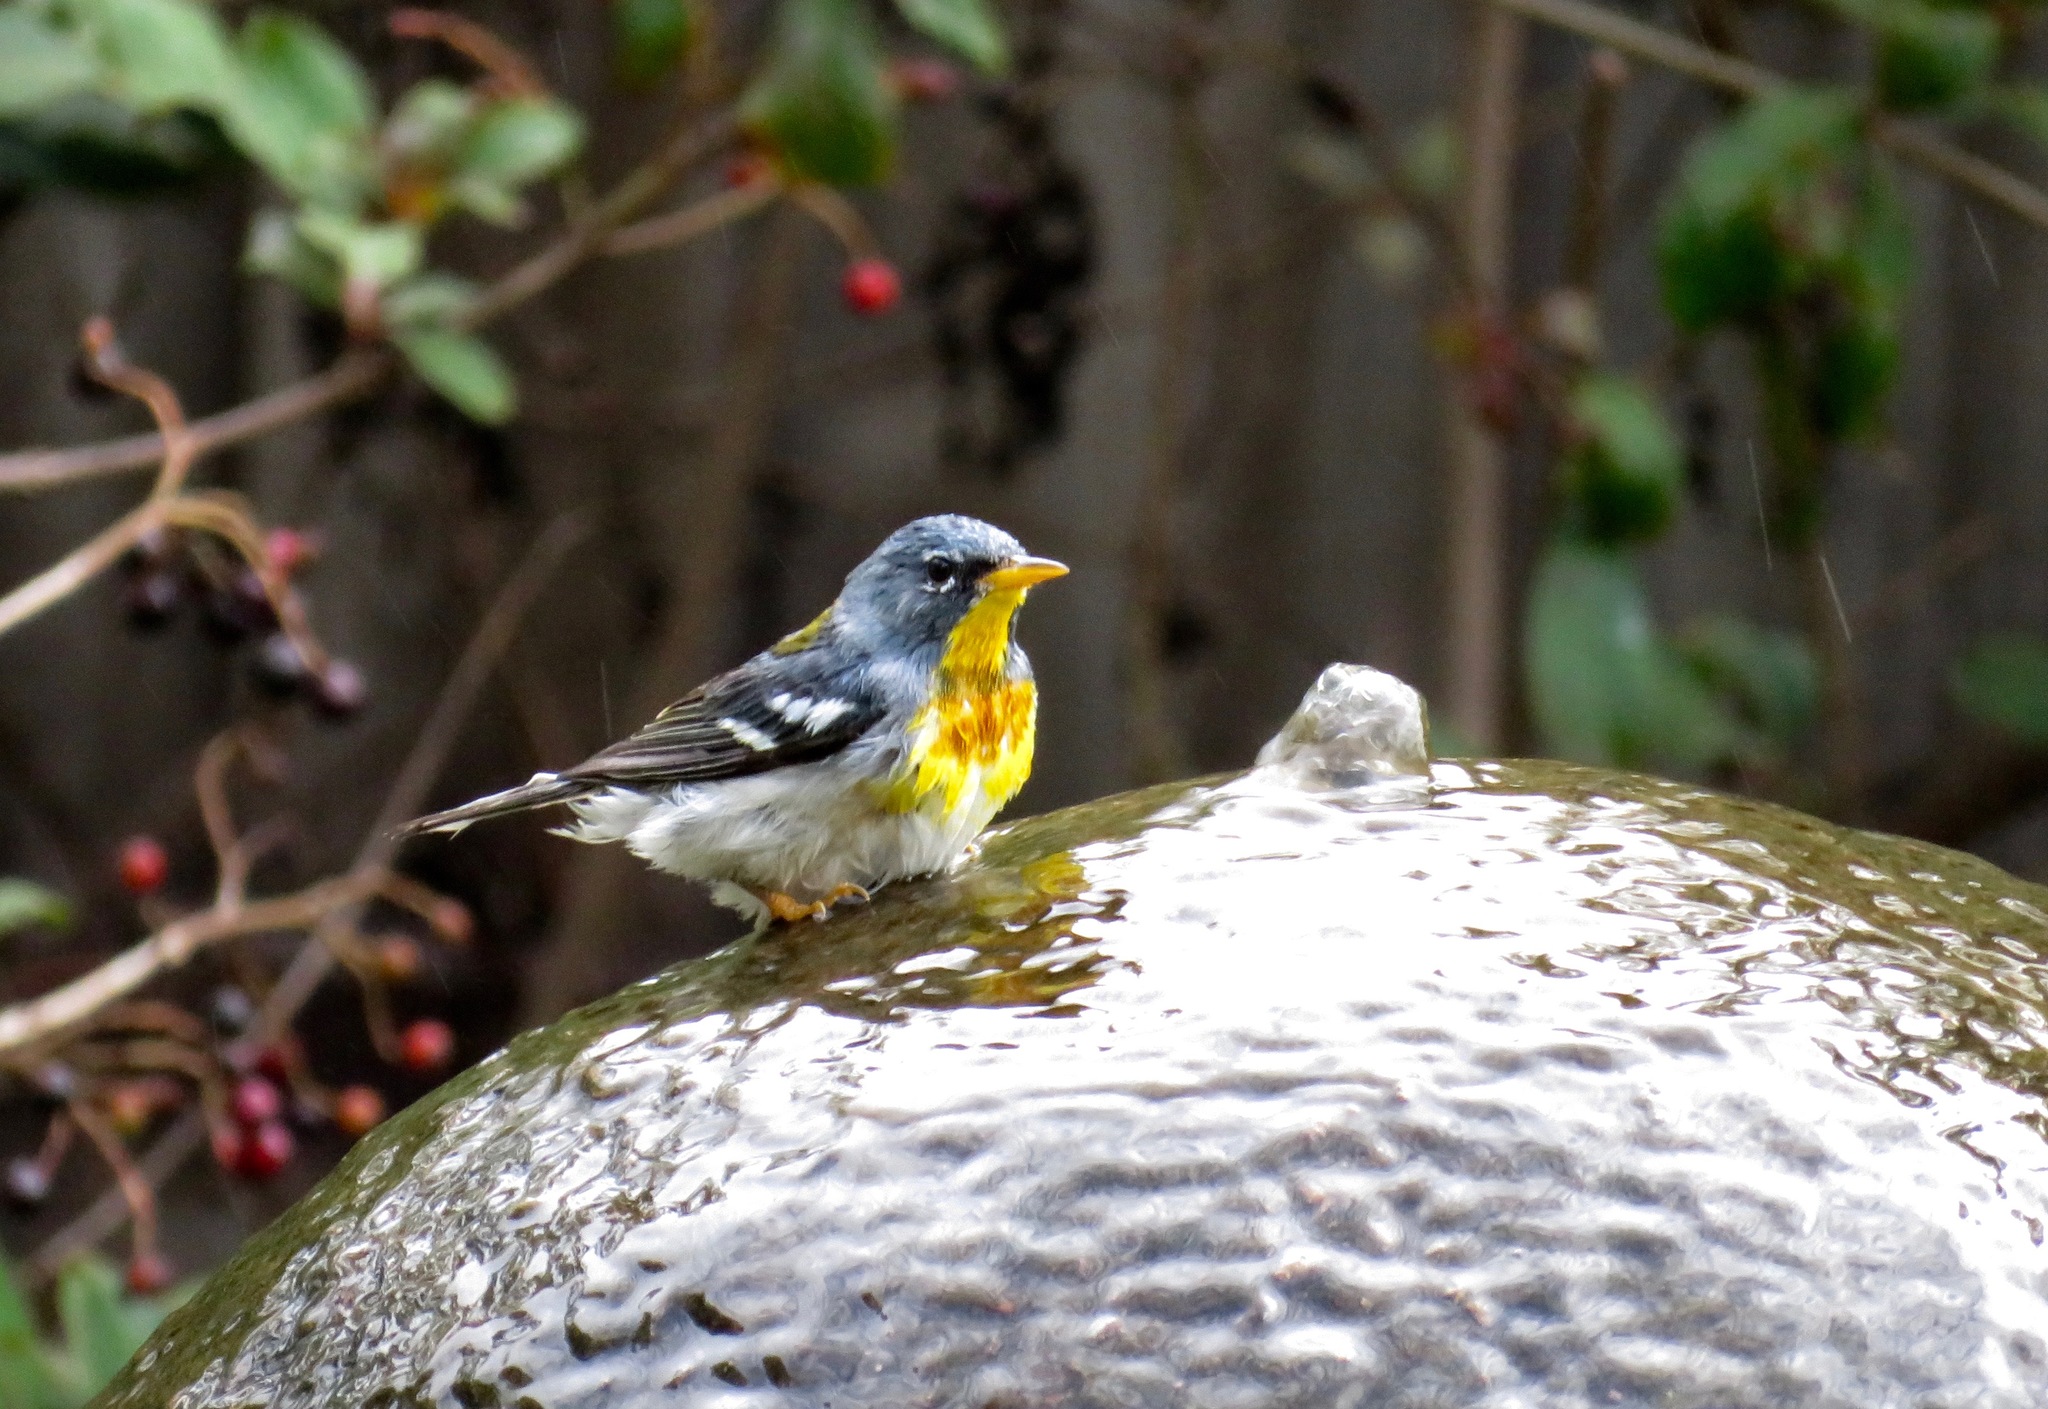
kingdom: Animalia
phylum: Chordata
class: Aves
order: Passeriformes
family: Parulidae
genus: Setophaga
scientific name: Setophaga americana
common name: Northern parula
